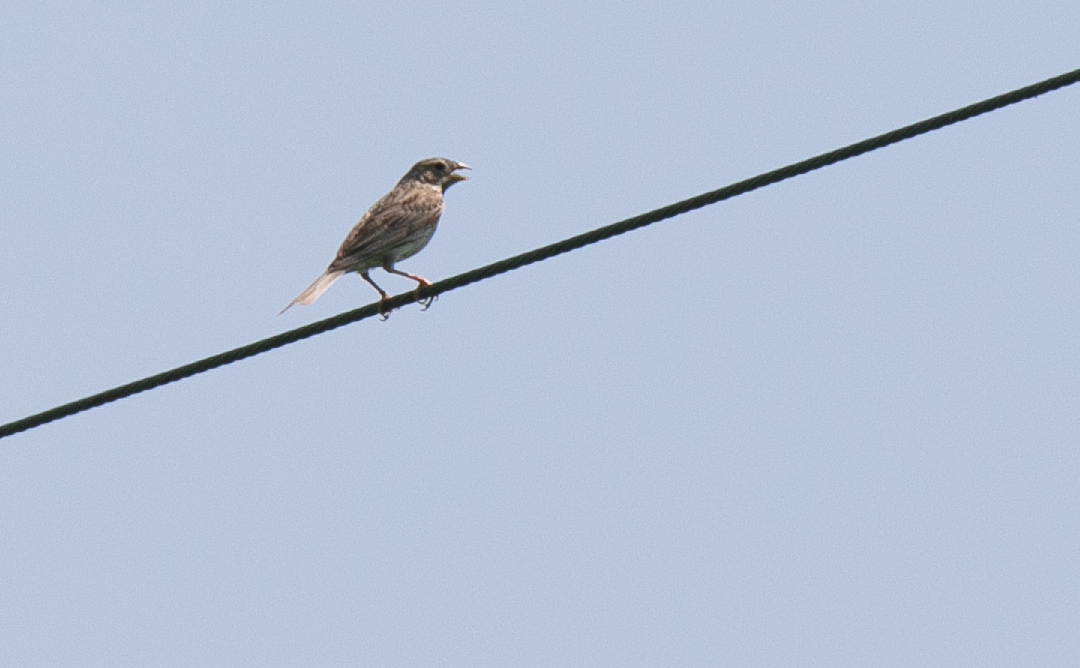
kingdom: Animalia
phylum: Chordata
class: Aves
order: Passeriformes
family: Emberizidae
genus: Emberiza
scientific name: Emberiza calandra
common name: Corn bunting
